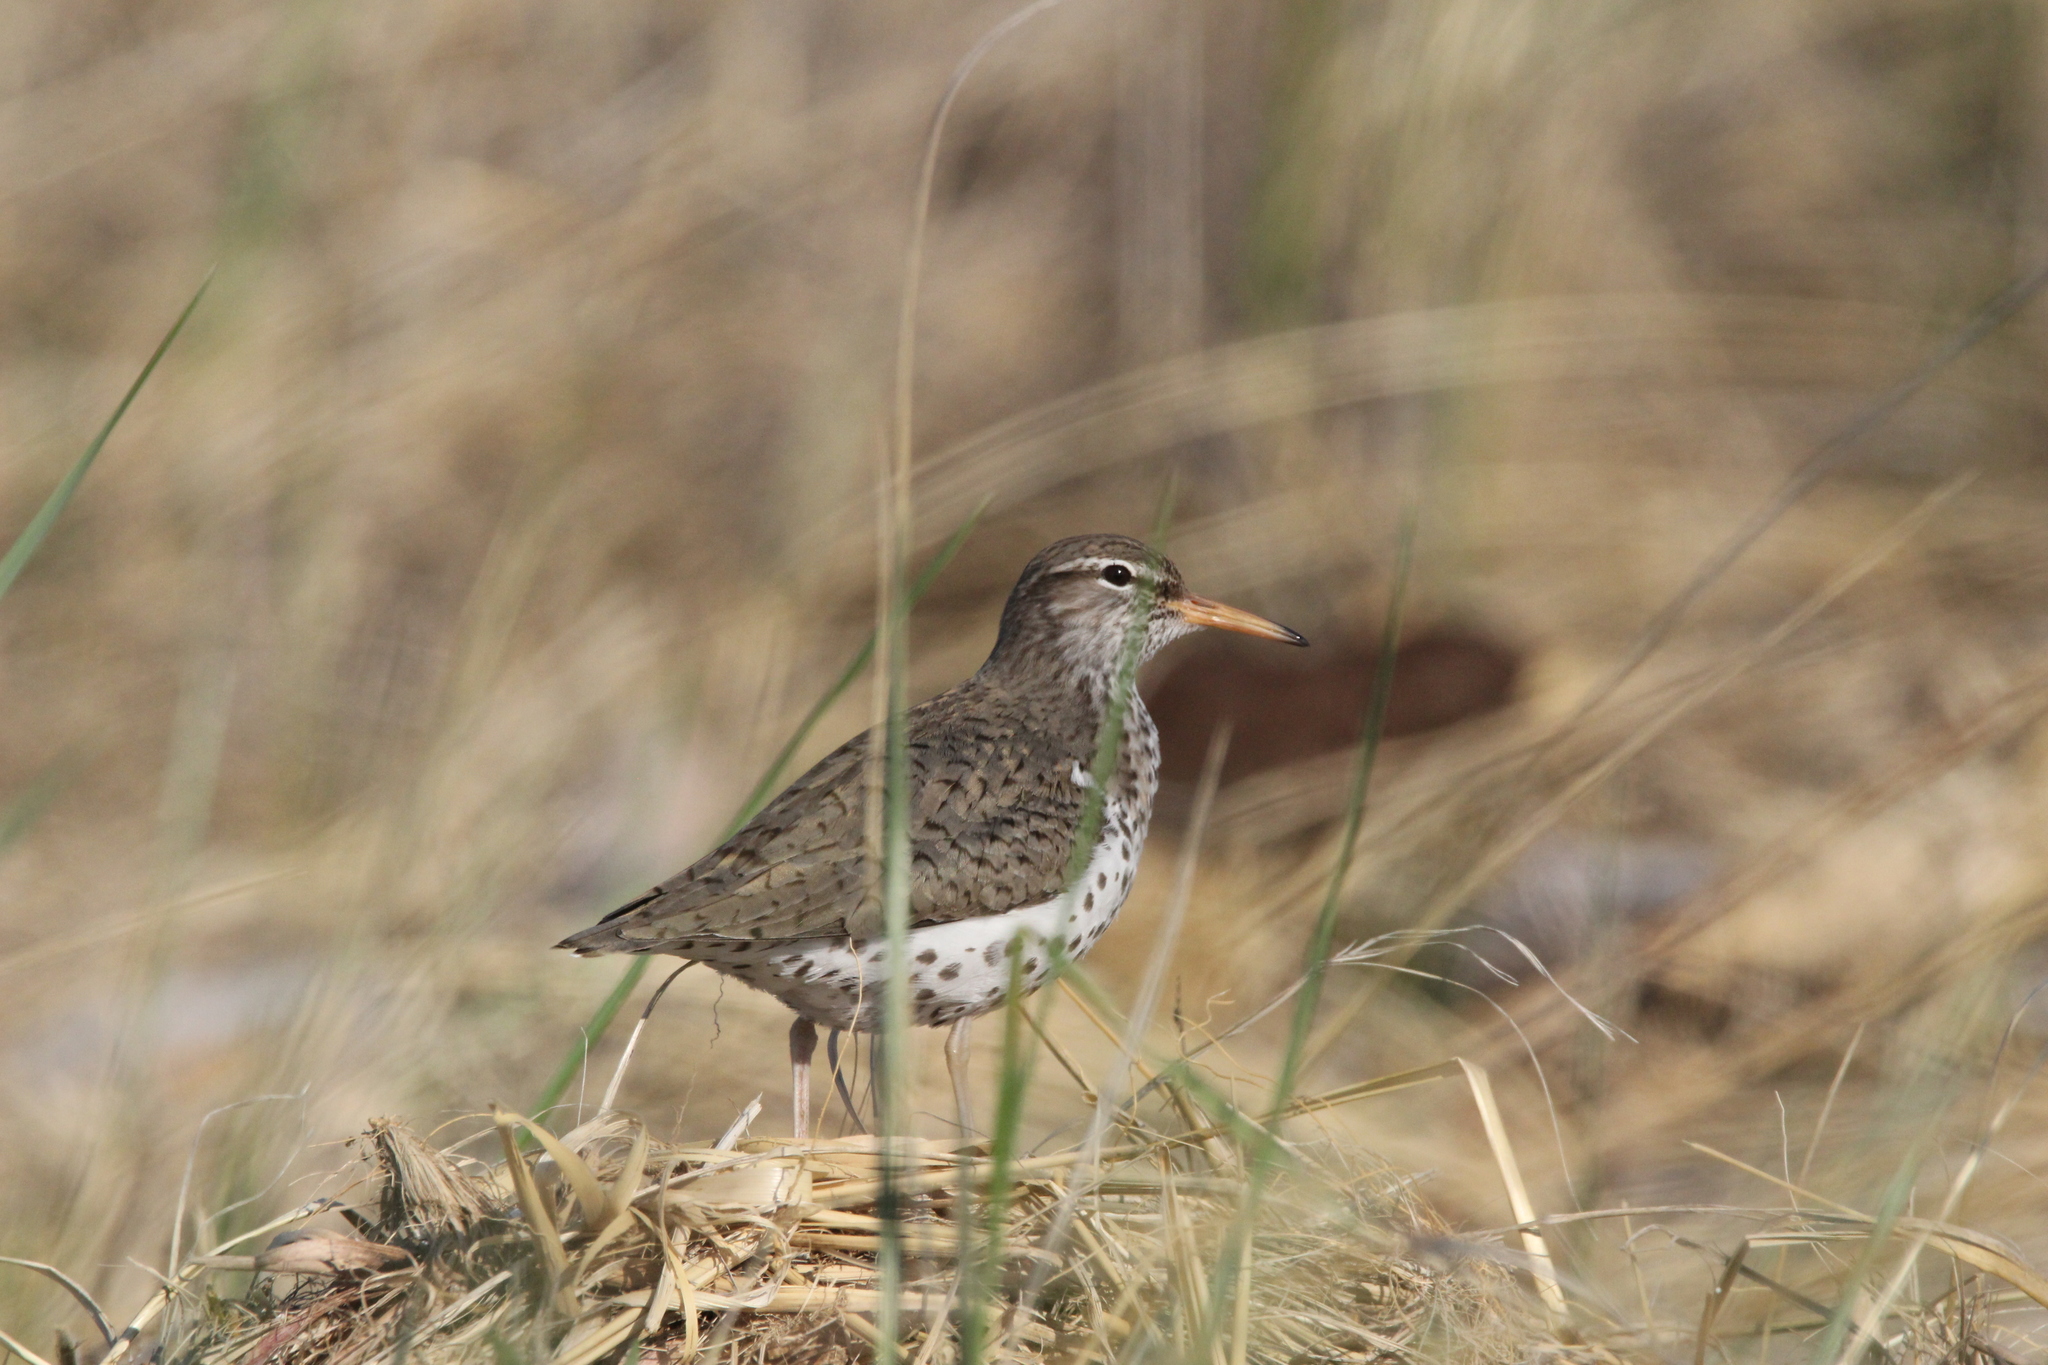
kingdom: Animalia
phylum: Chordata
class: Aves
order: Charadriiformes
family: Scolopacidae
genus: Actitis
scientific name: Actitis macularius
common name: Spotted sandpiper
